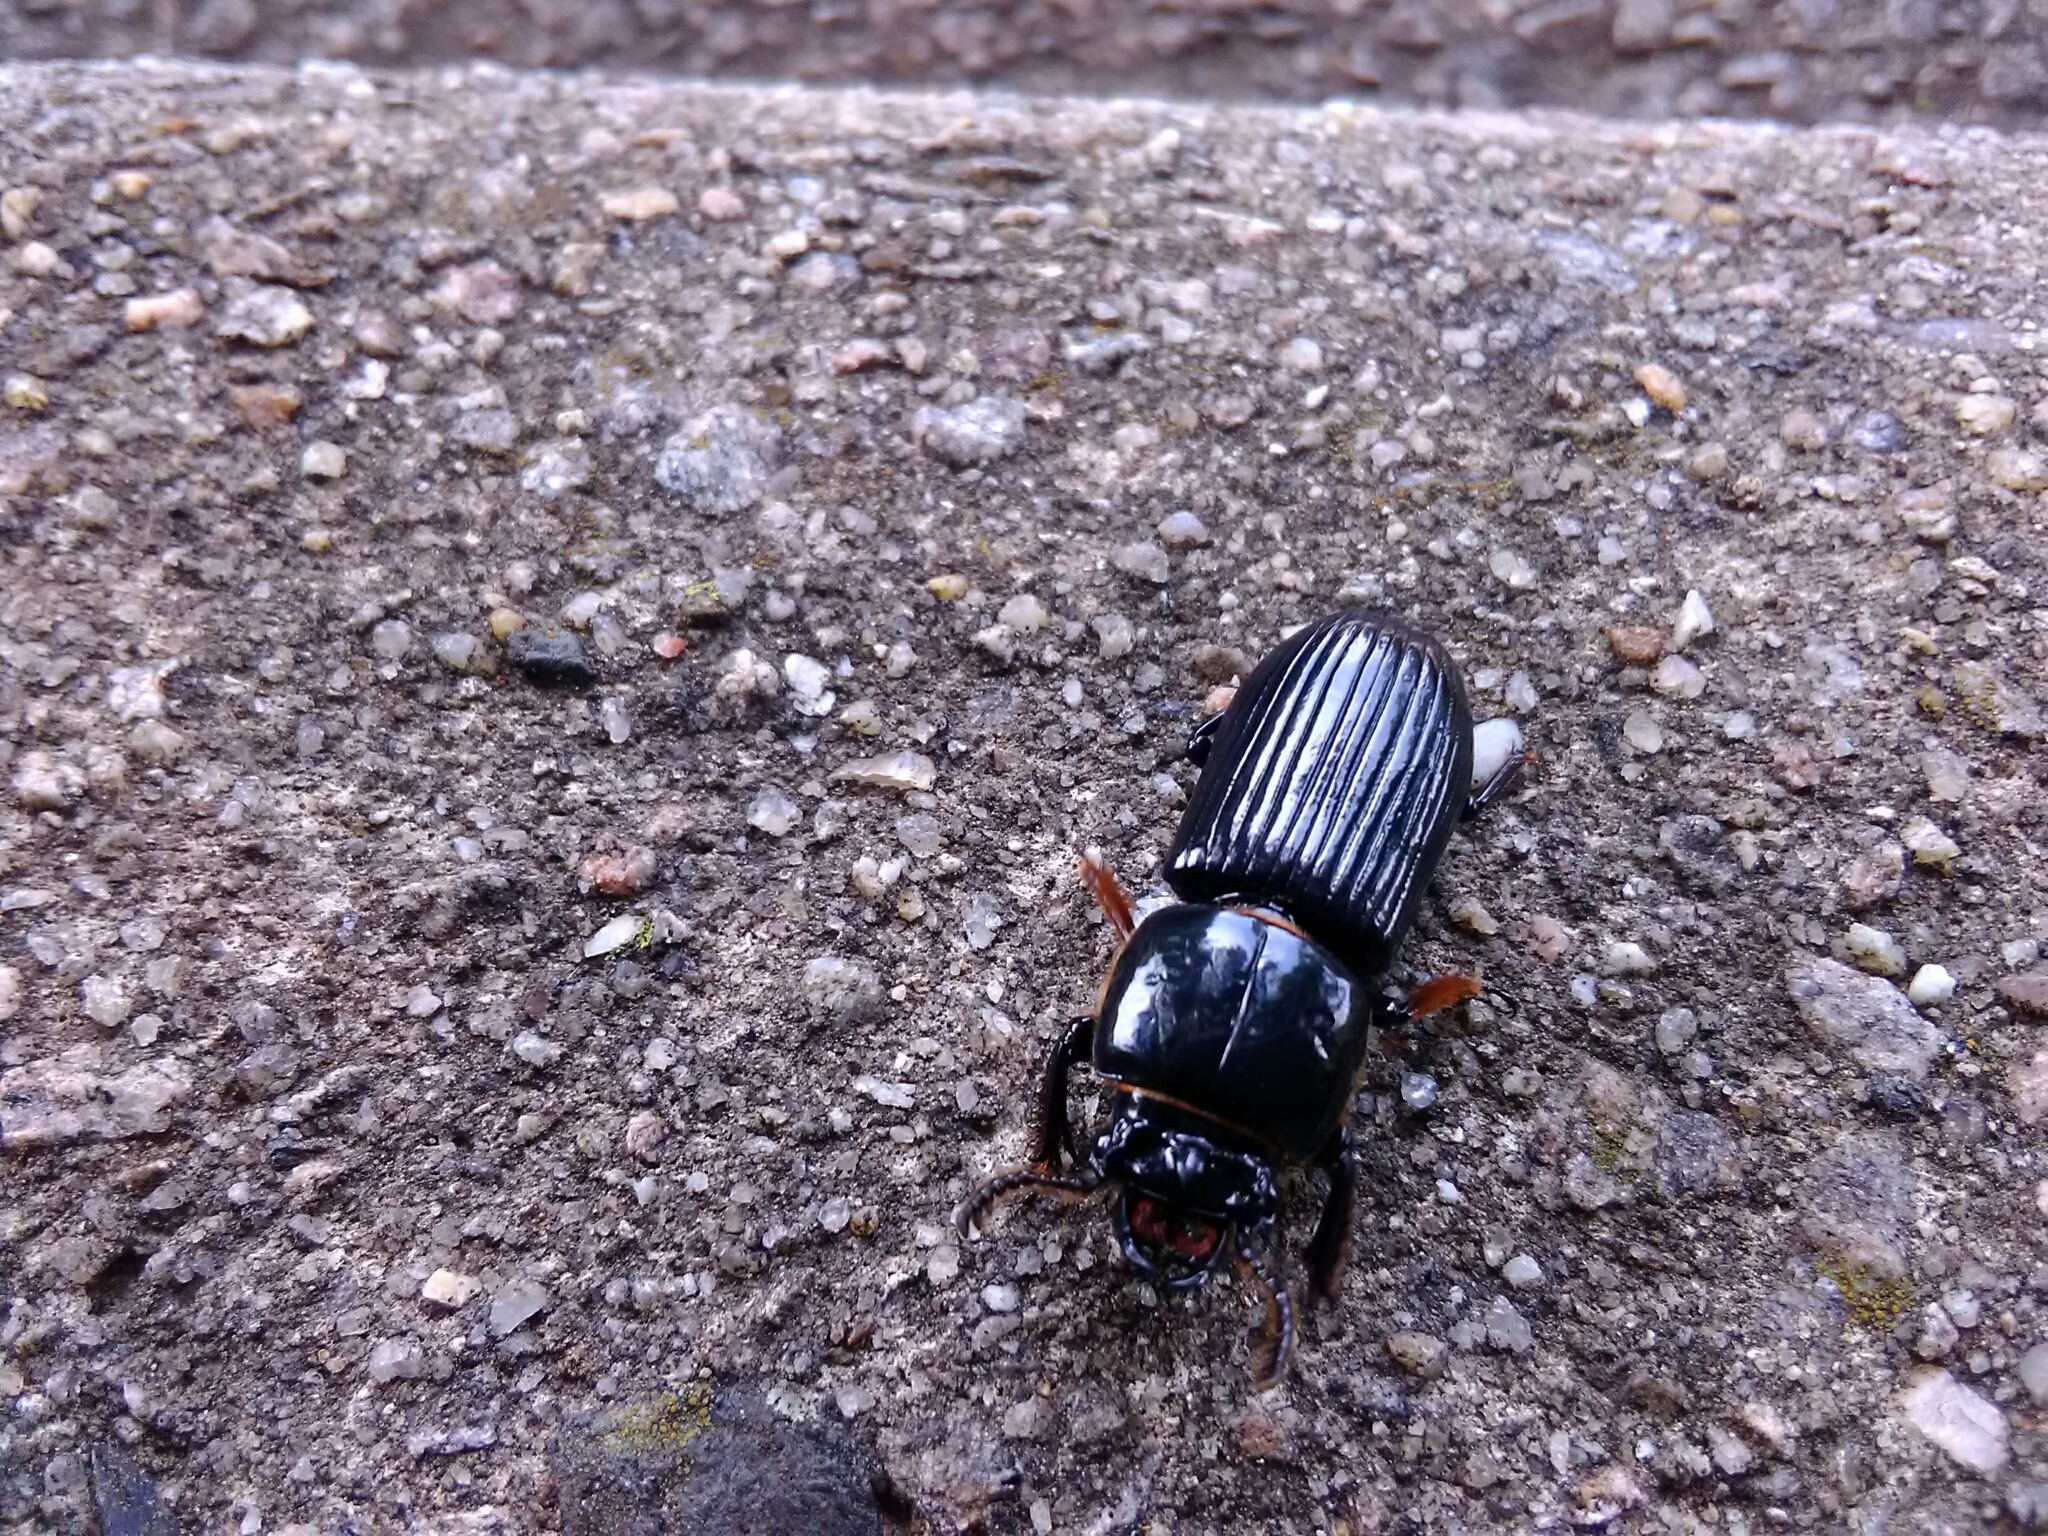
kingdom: Animalia
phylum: Arthropoda
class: Insecta
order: Coleoptera
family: Passalidae
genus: Odontotaenius
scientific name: Odontotaenius disjunctus
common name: Patent leather beetle
